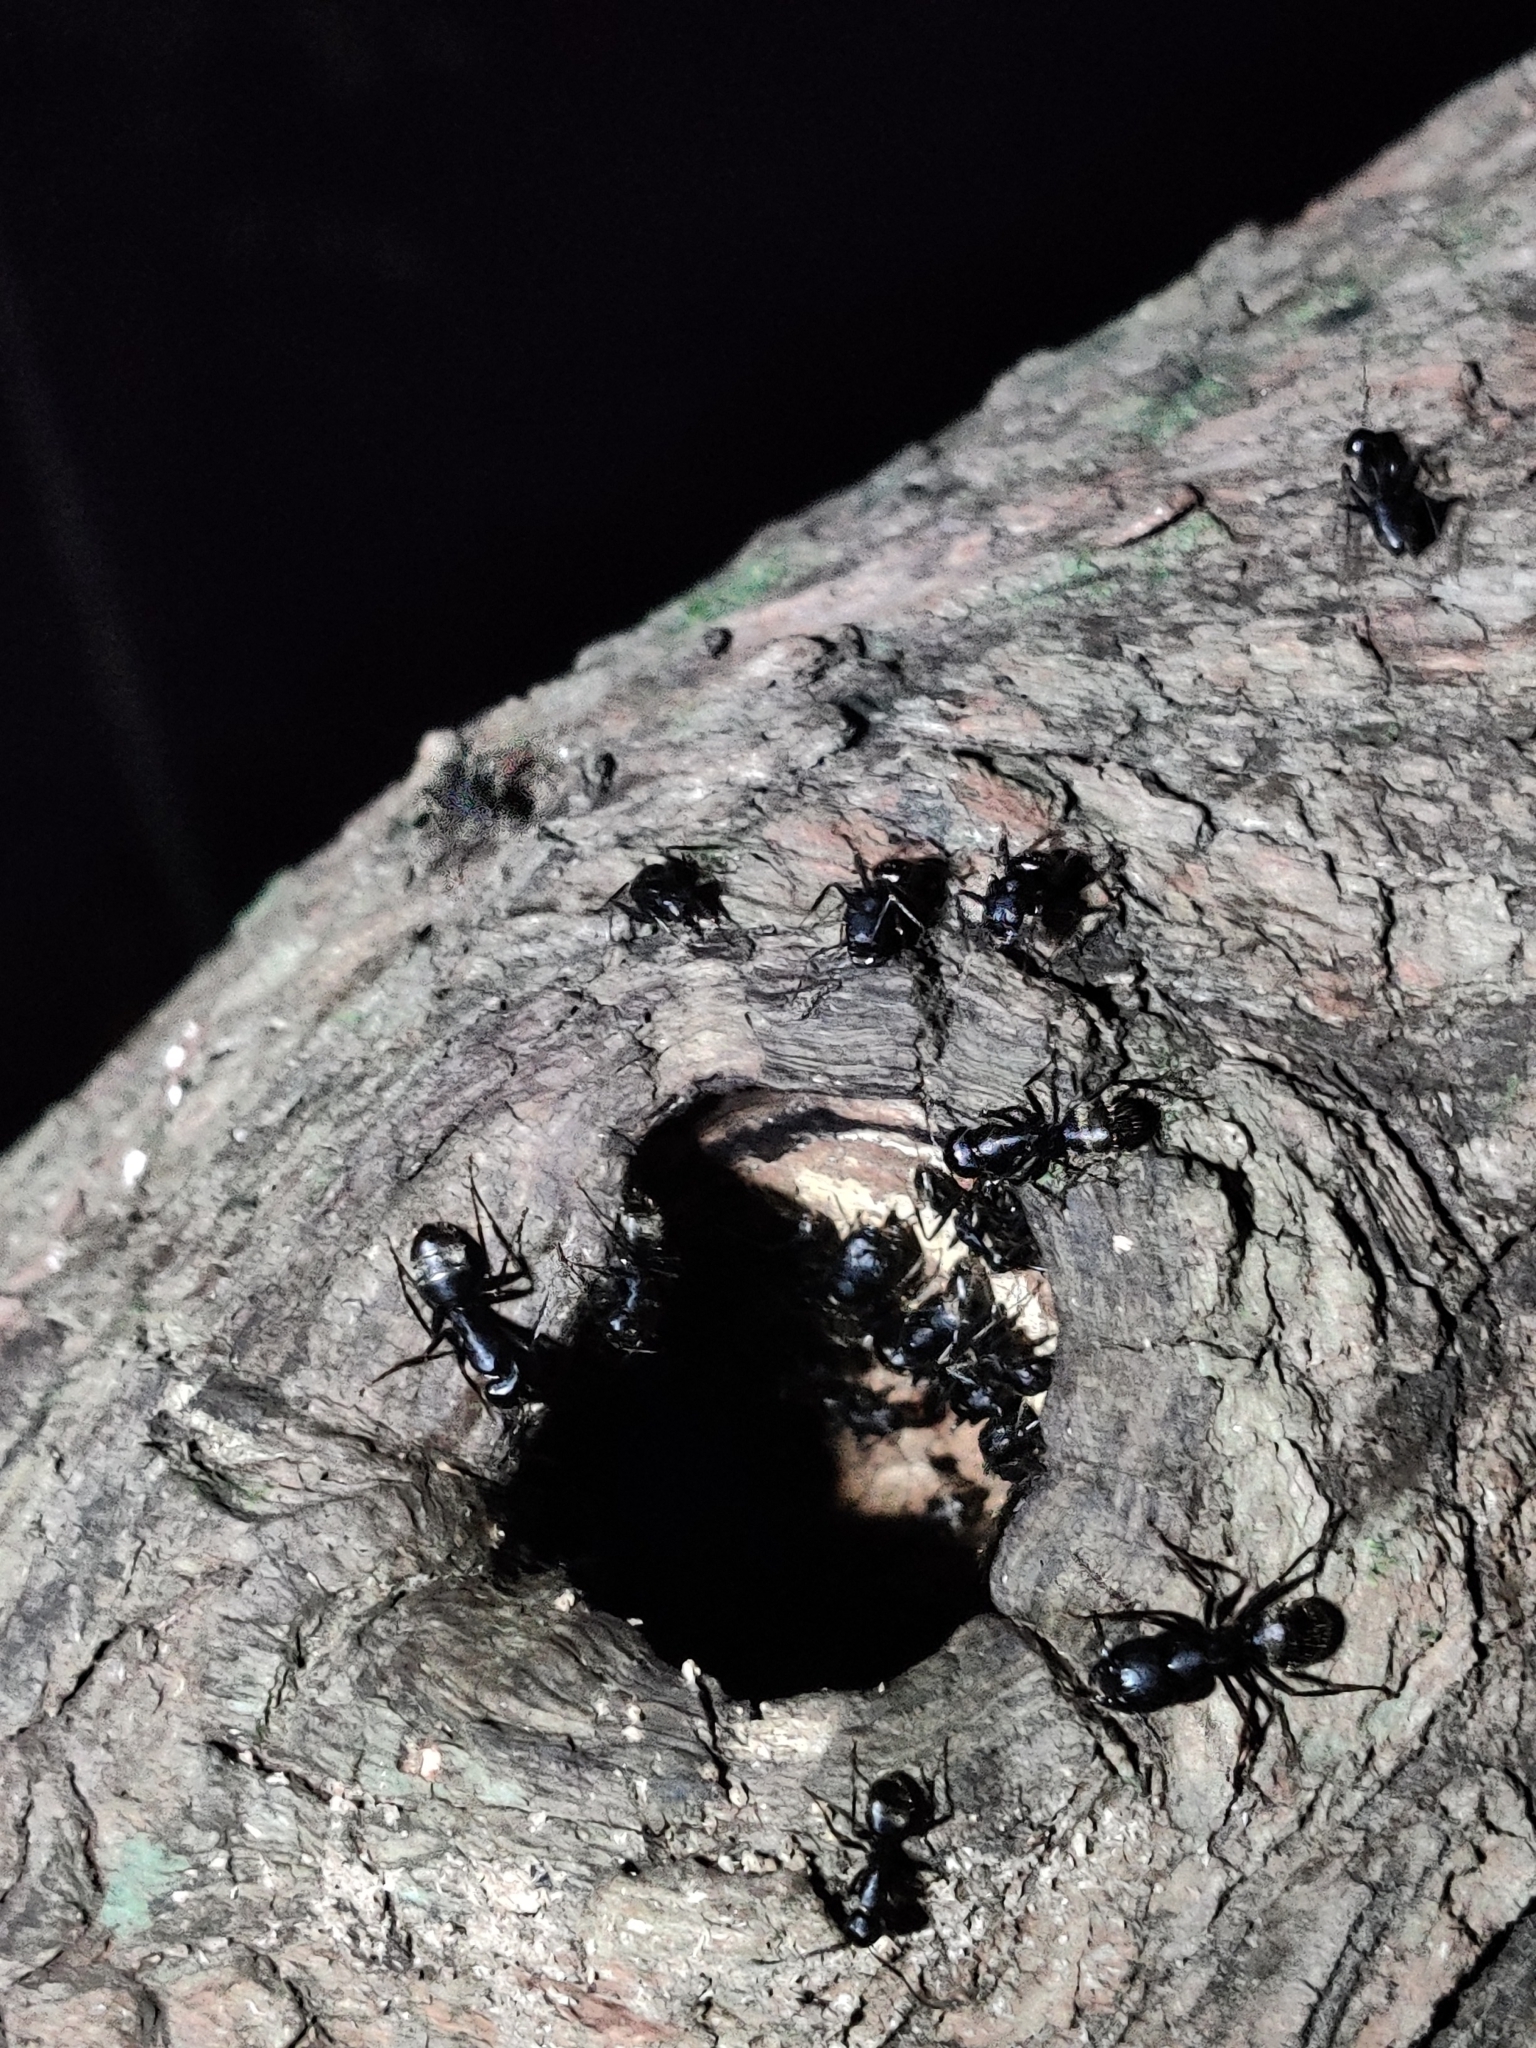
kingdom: Animalia
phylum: Arthropoda
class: Insecta
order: Hymenoptera
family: Formicidae
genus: Camponotus
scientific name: Camponotus pennsylvanicus
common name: Black carpenter ant
